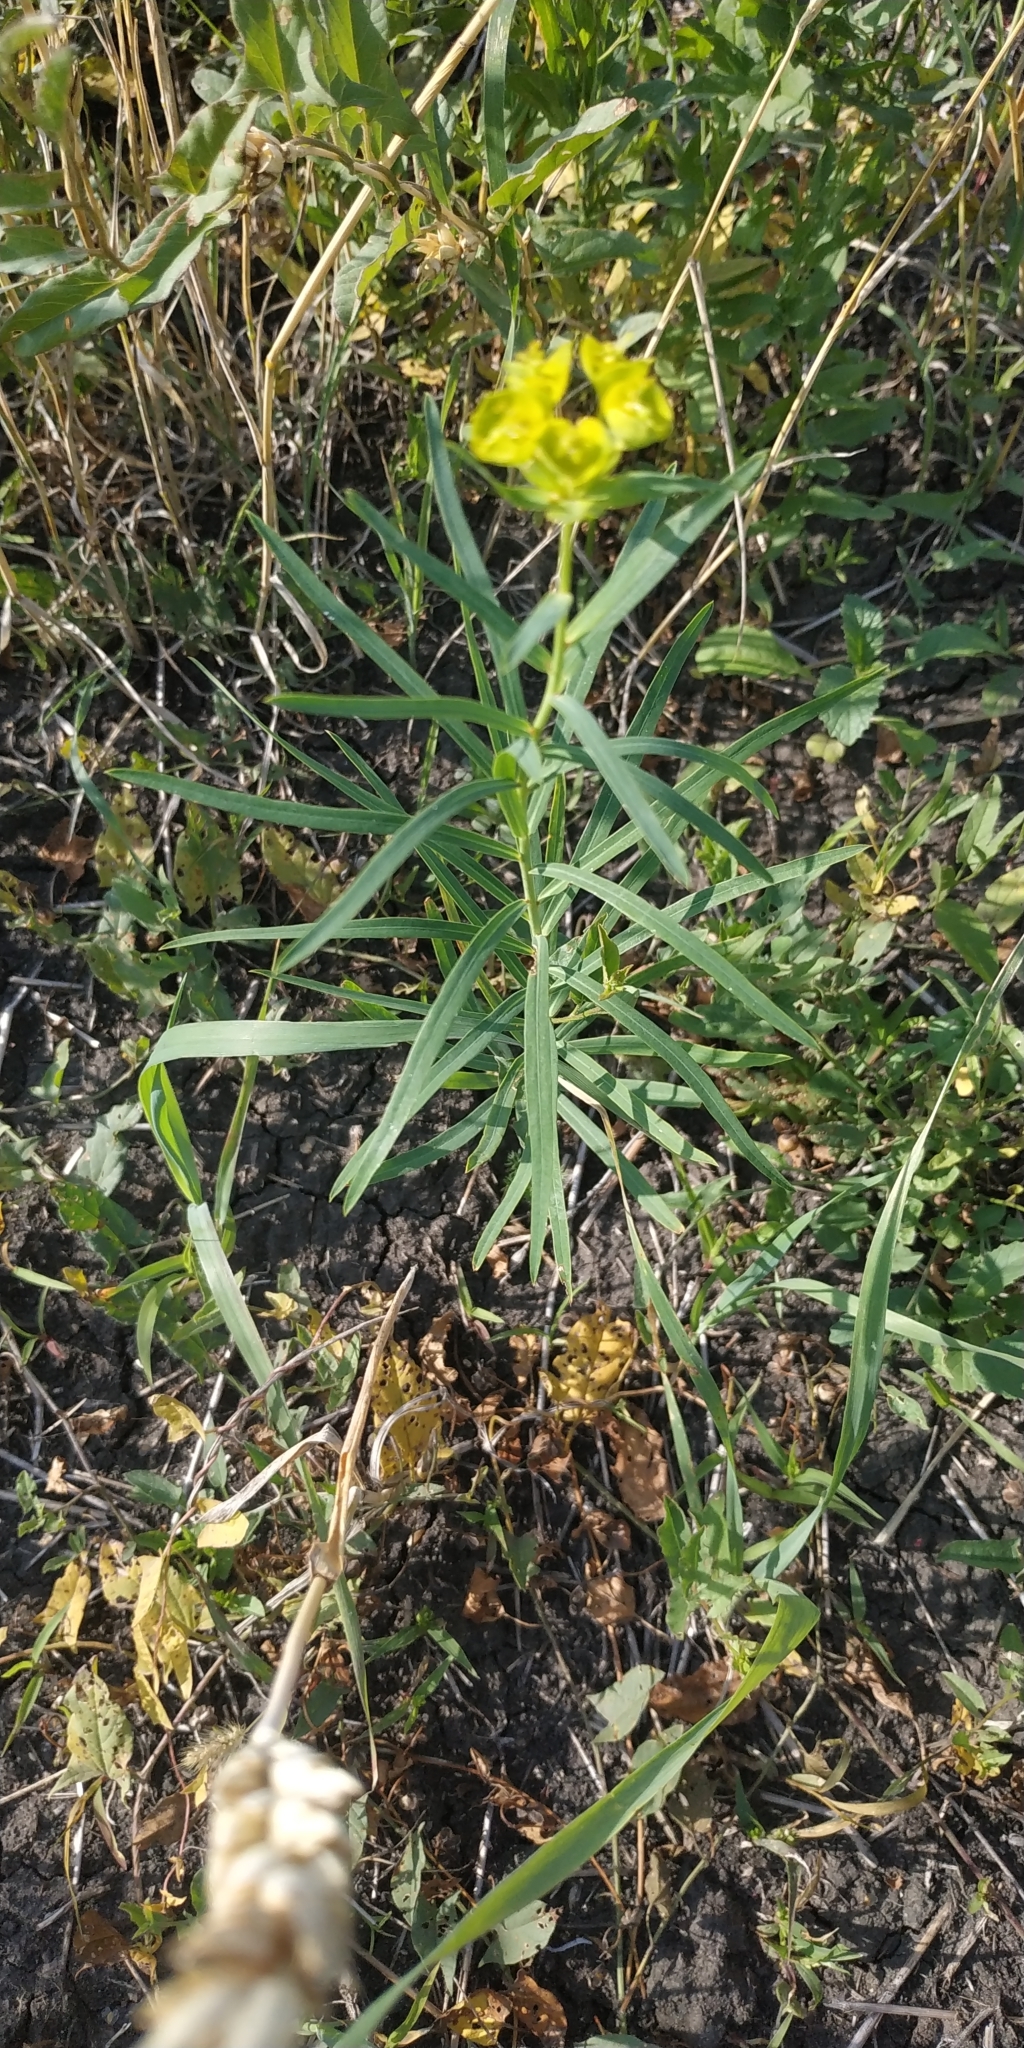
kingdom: Plantae
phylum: Tracheophyta
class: Magnoliopsida
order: Malpighiales
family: Euphorbiaceae
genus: Euphorbia
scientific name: Euphorbia virgata
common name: Leafy spurge
